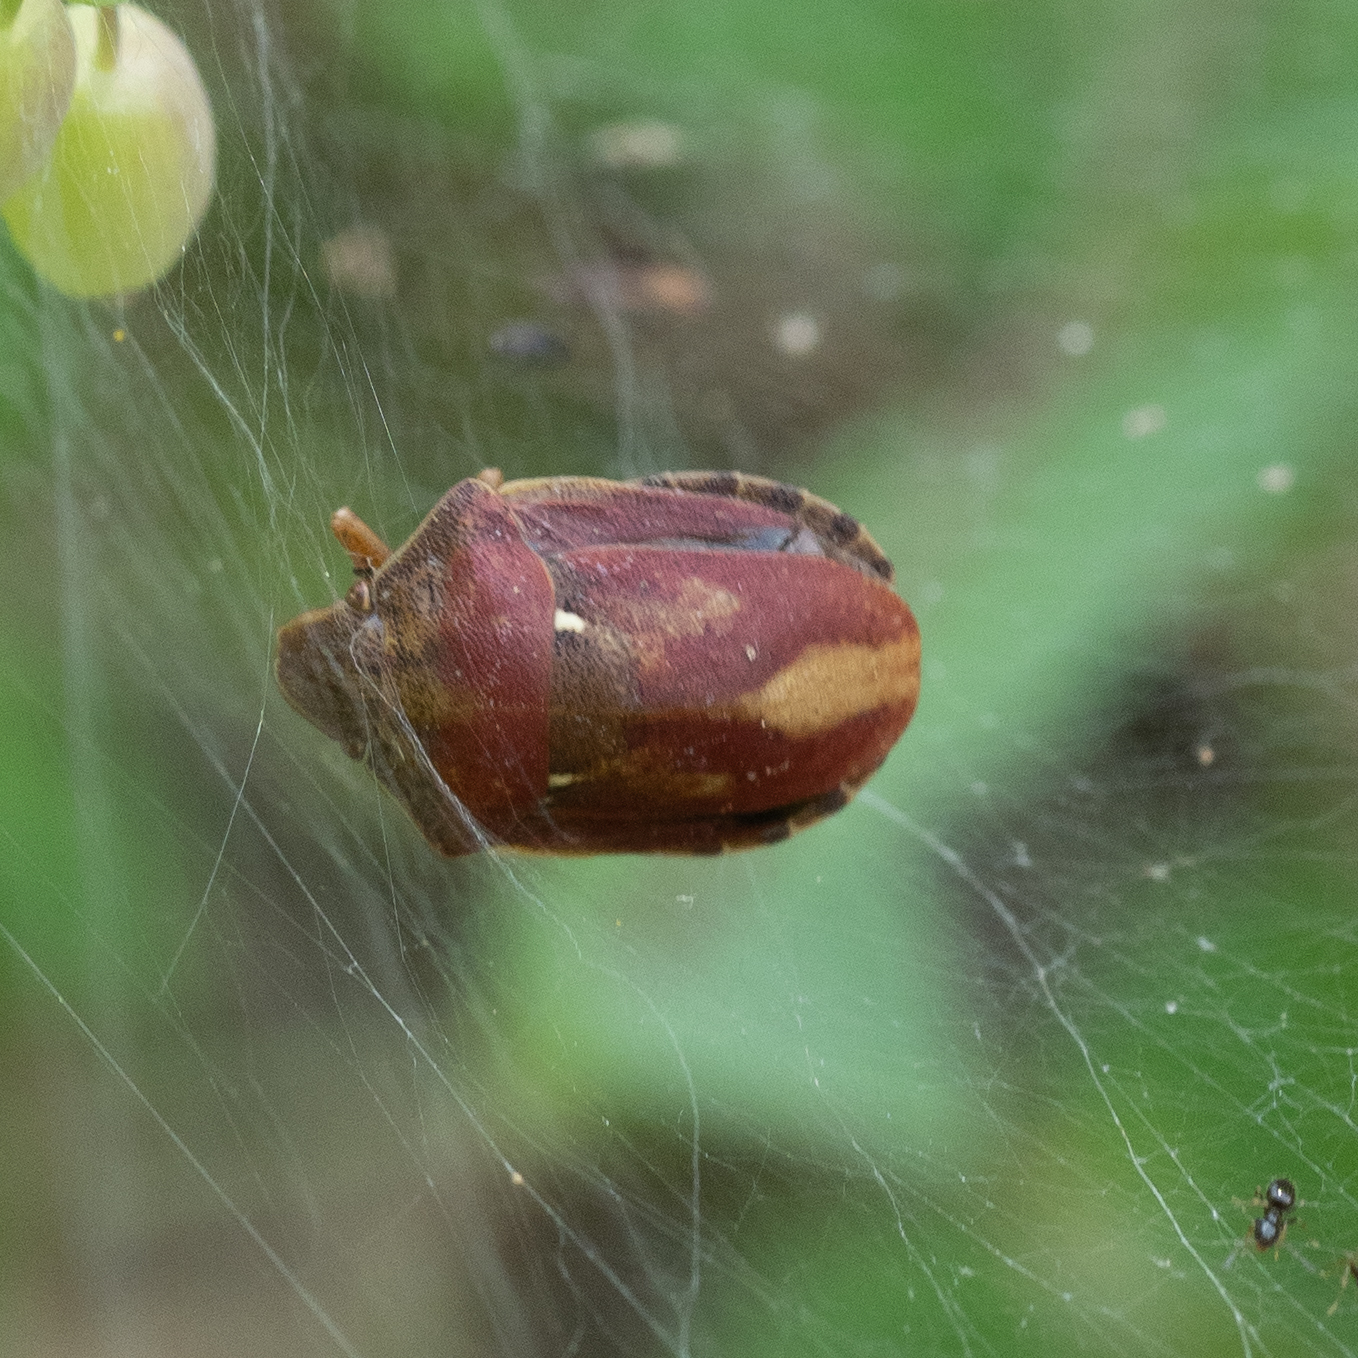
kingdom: Animalia
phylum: Arthropoda
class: Insecta
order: Hemiptera
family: Scutelleridae
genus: Eurygaster
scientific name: Eurygaster testudinaria
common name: Tortoise bug
